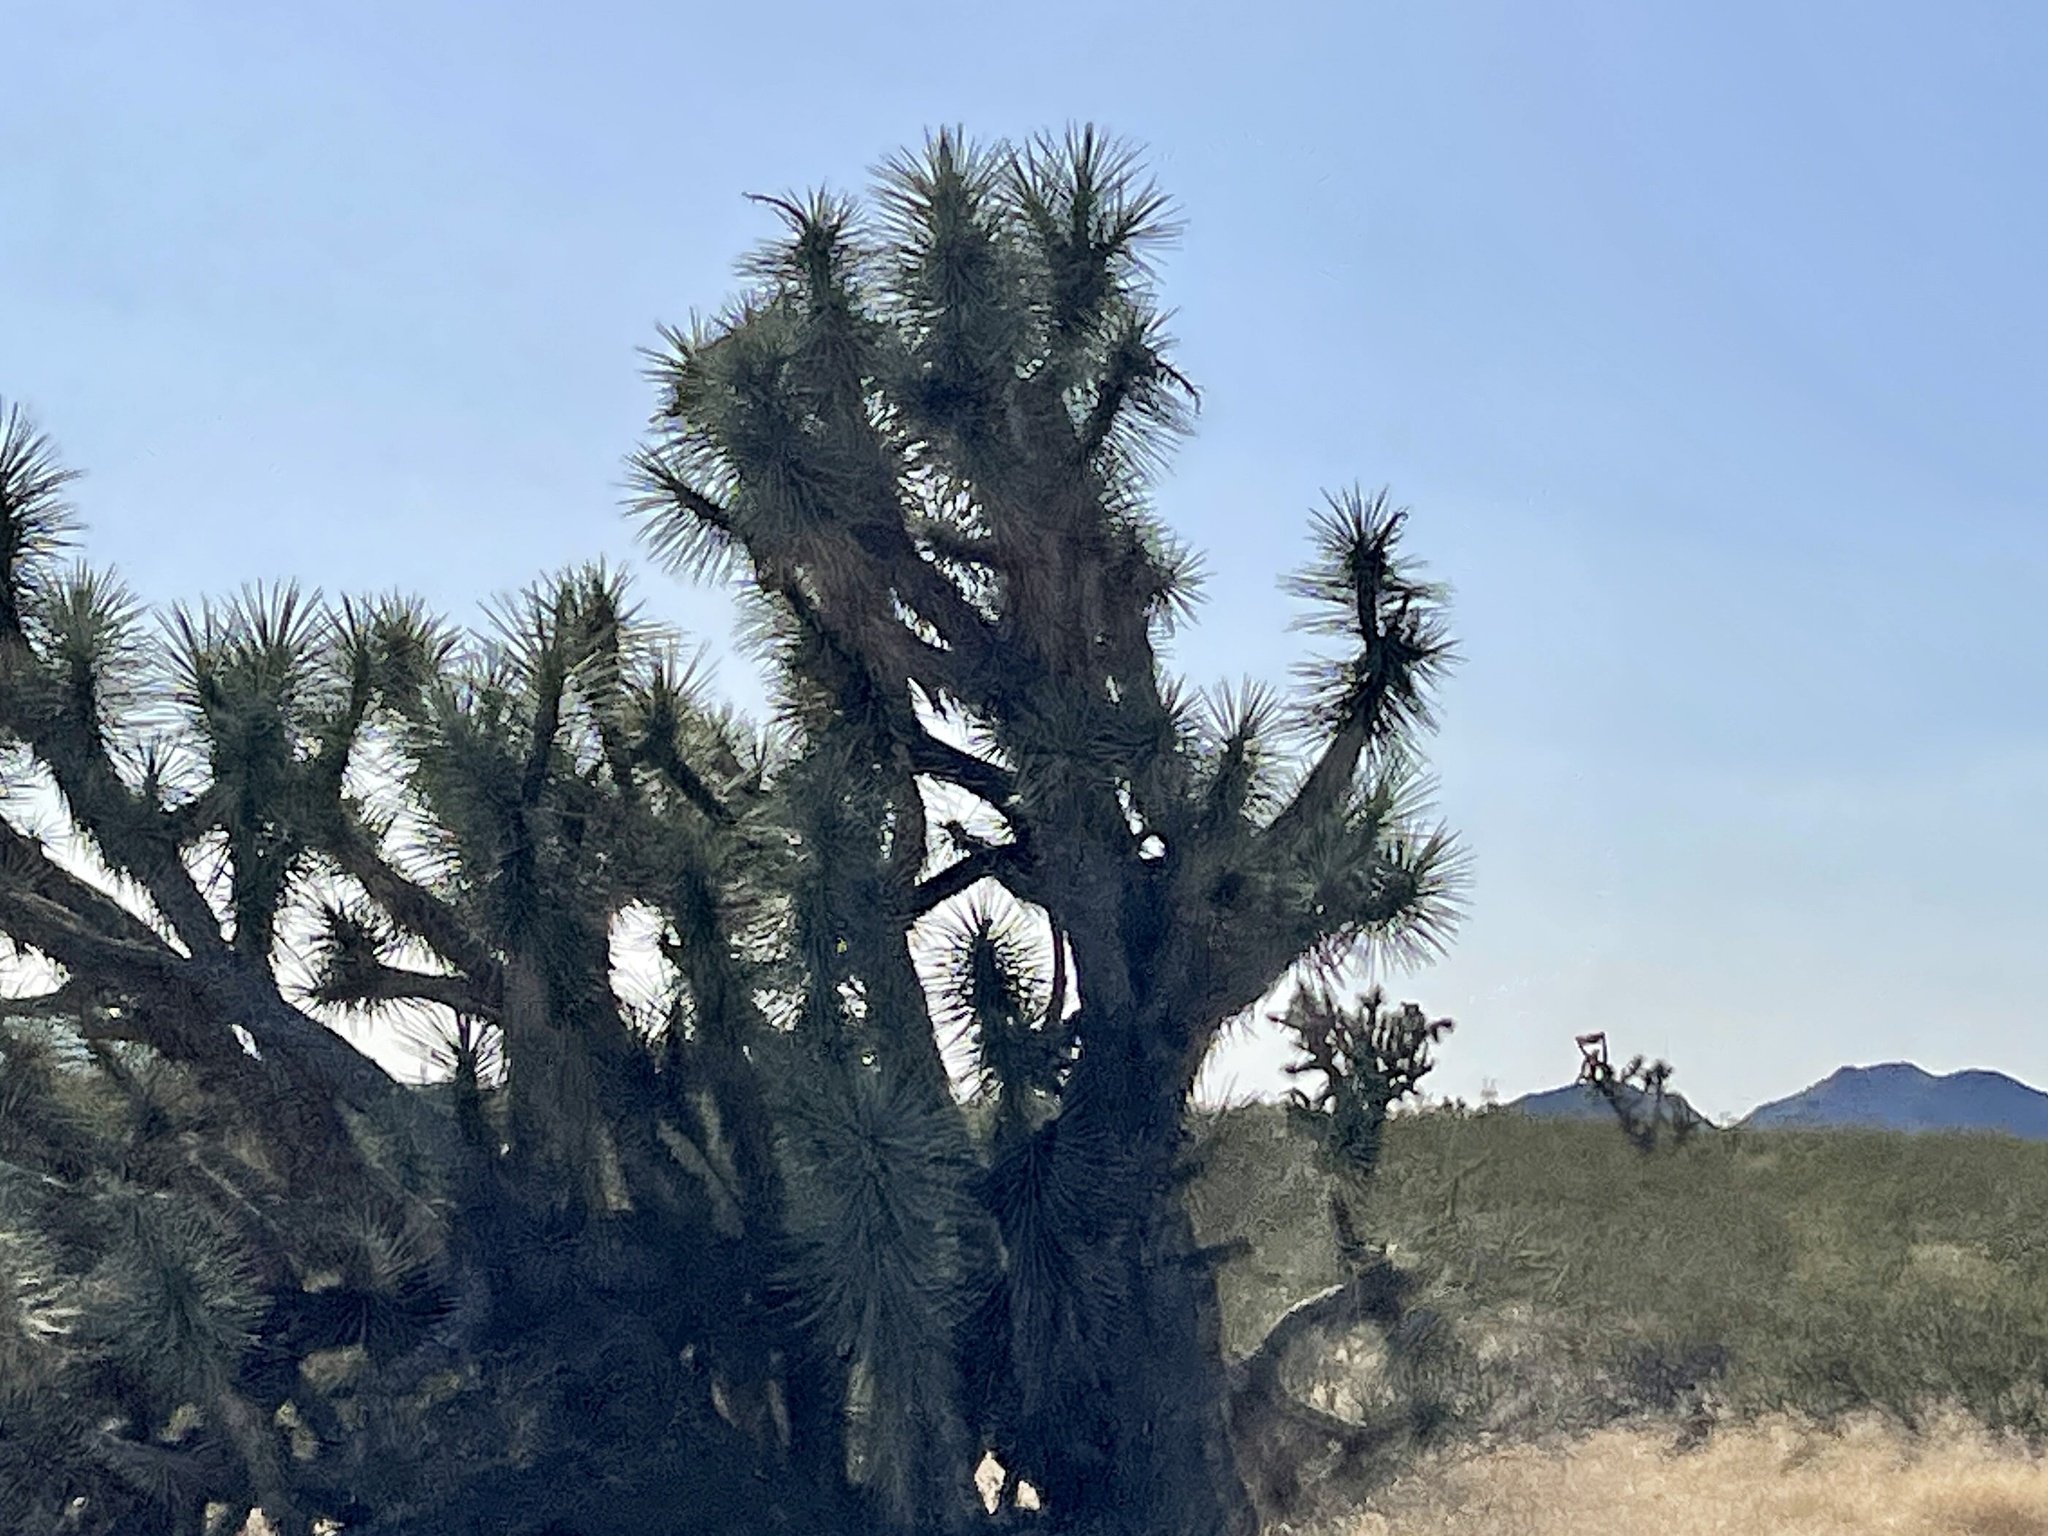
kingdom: Plantae
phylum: Tracheophyta
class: Liliopsida
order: Asparagales
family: Asparagaceae
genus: Yucca
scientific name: Yucca brevifolia
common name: Joshua tree
